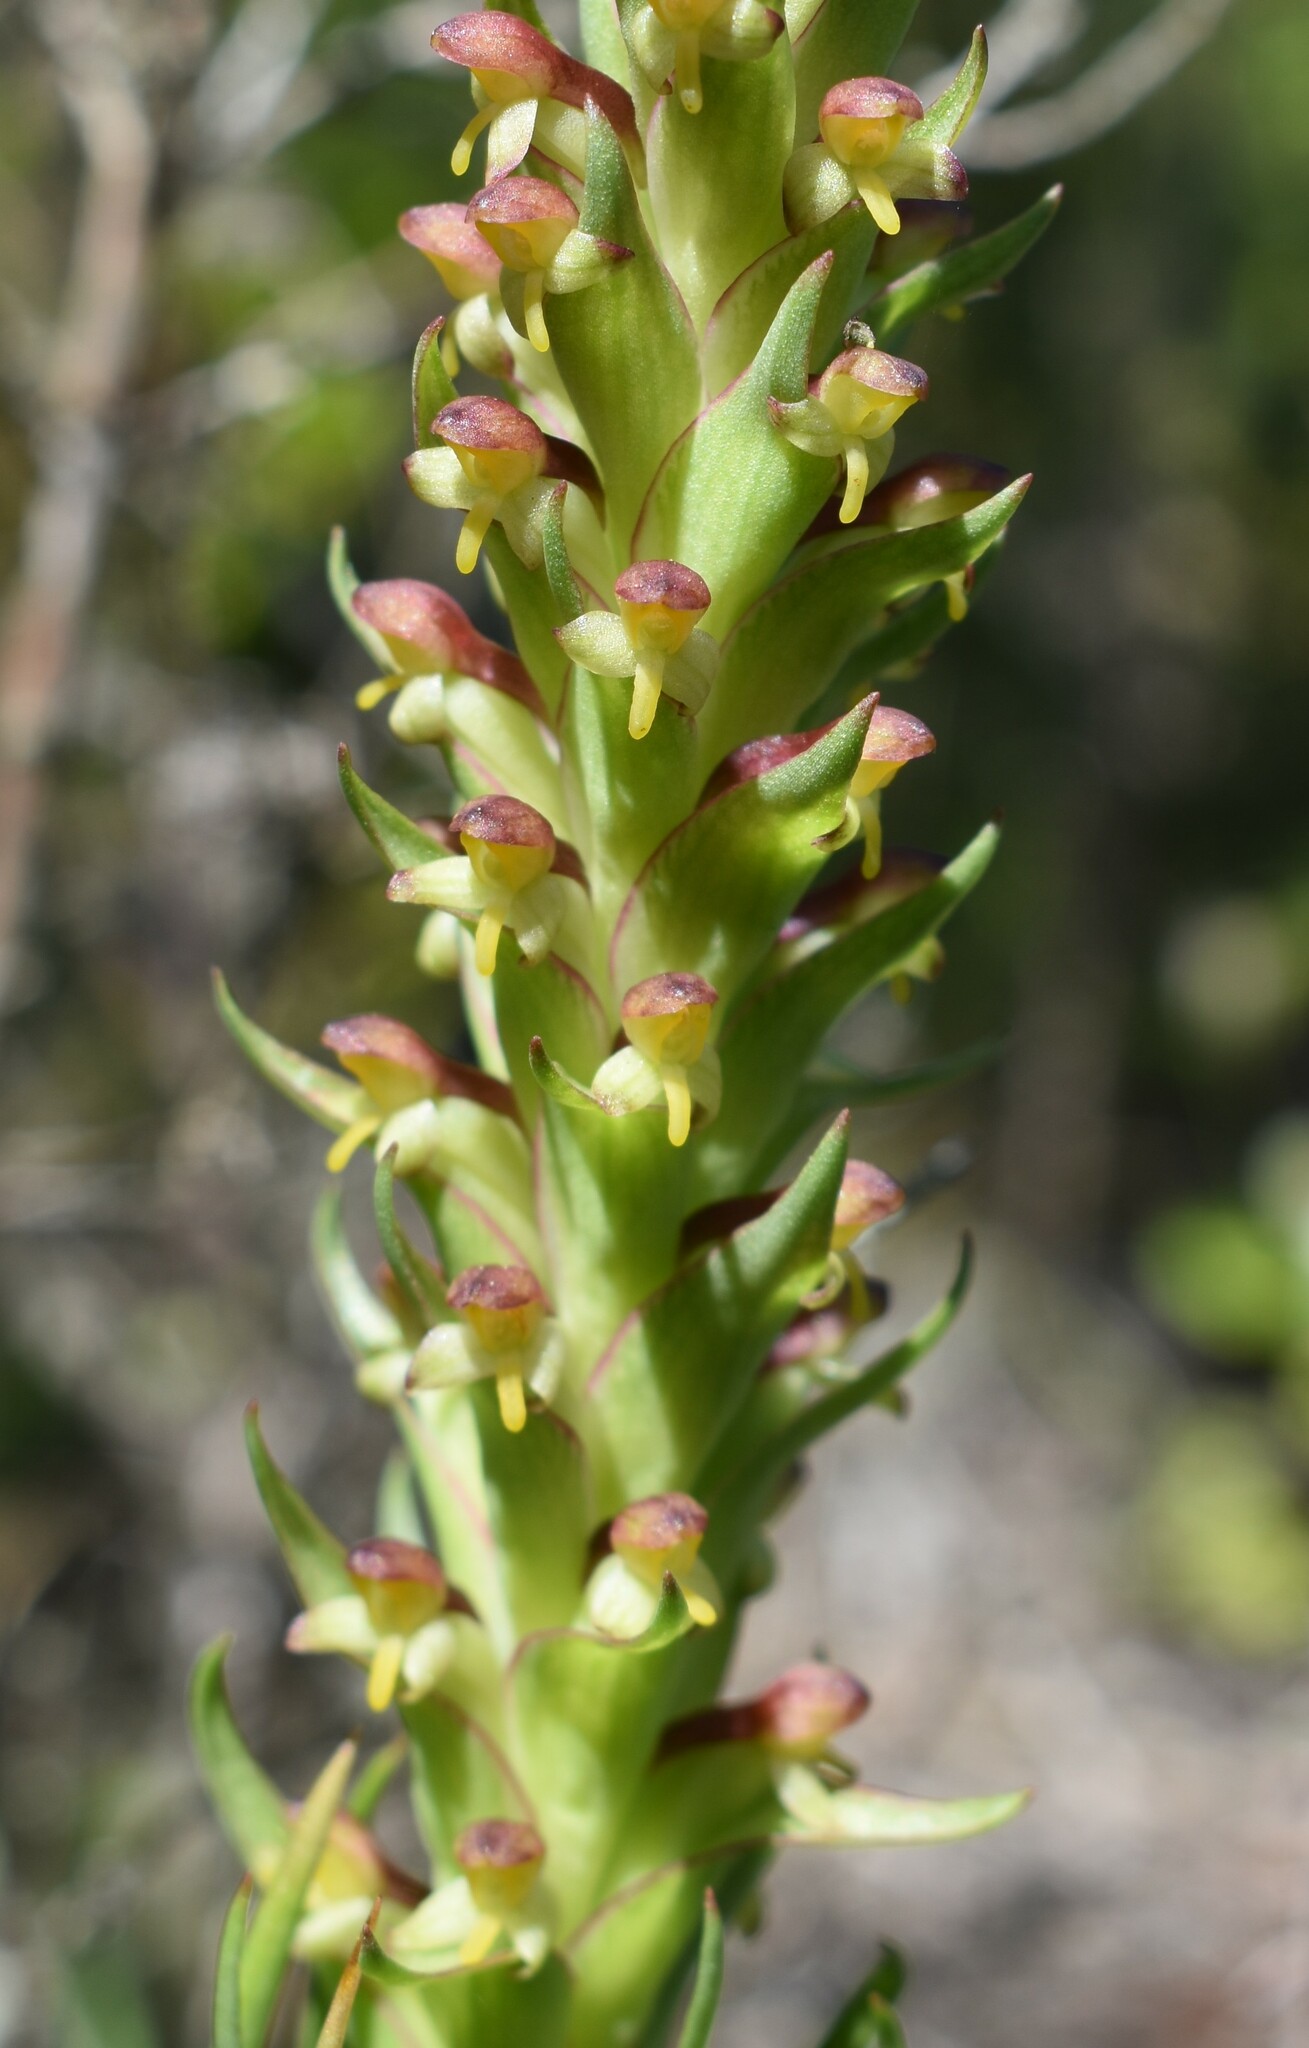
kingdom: Plantae
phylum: Tracheophyta
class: Liliopsida
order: Asparagales
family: Orchidaceae
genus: Disa
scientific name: Disa bracteata
